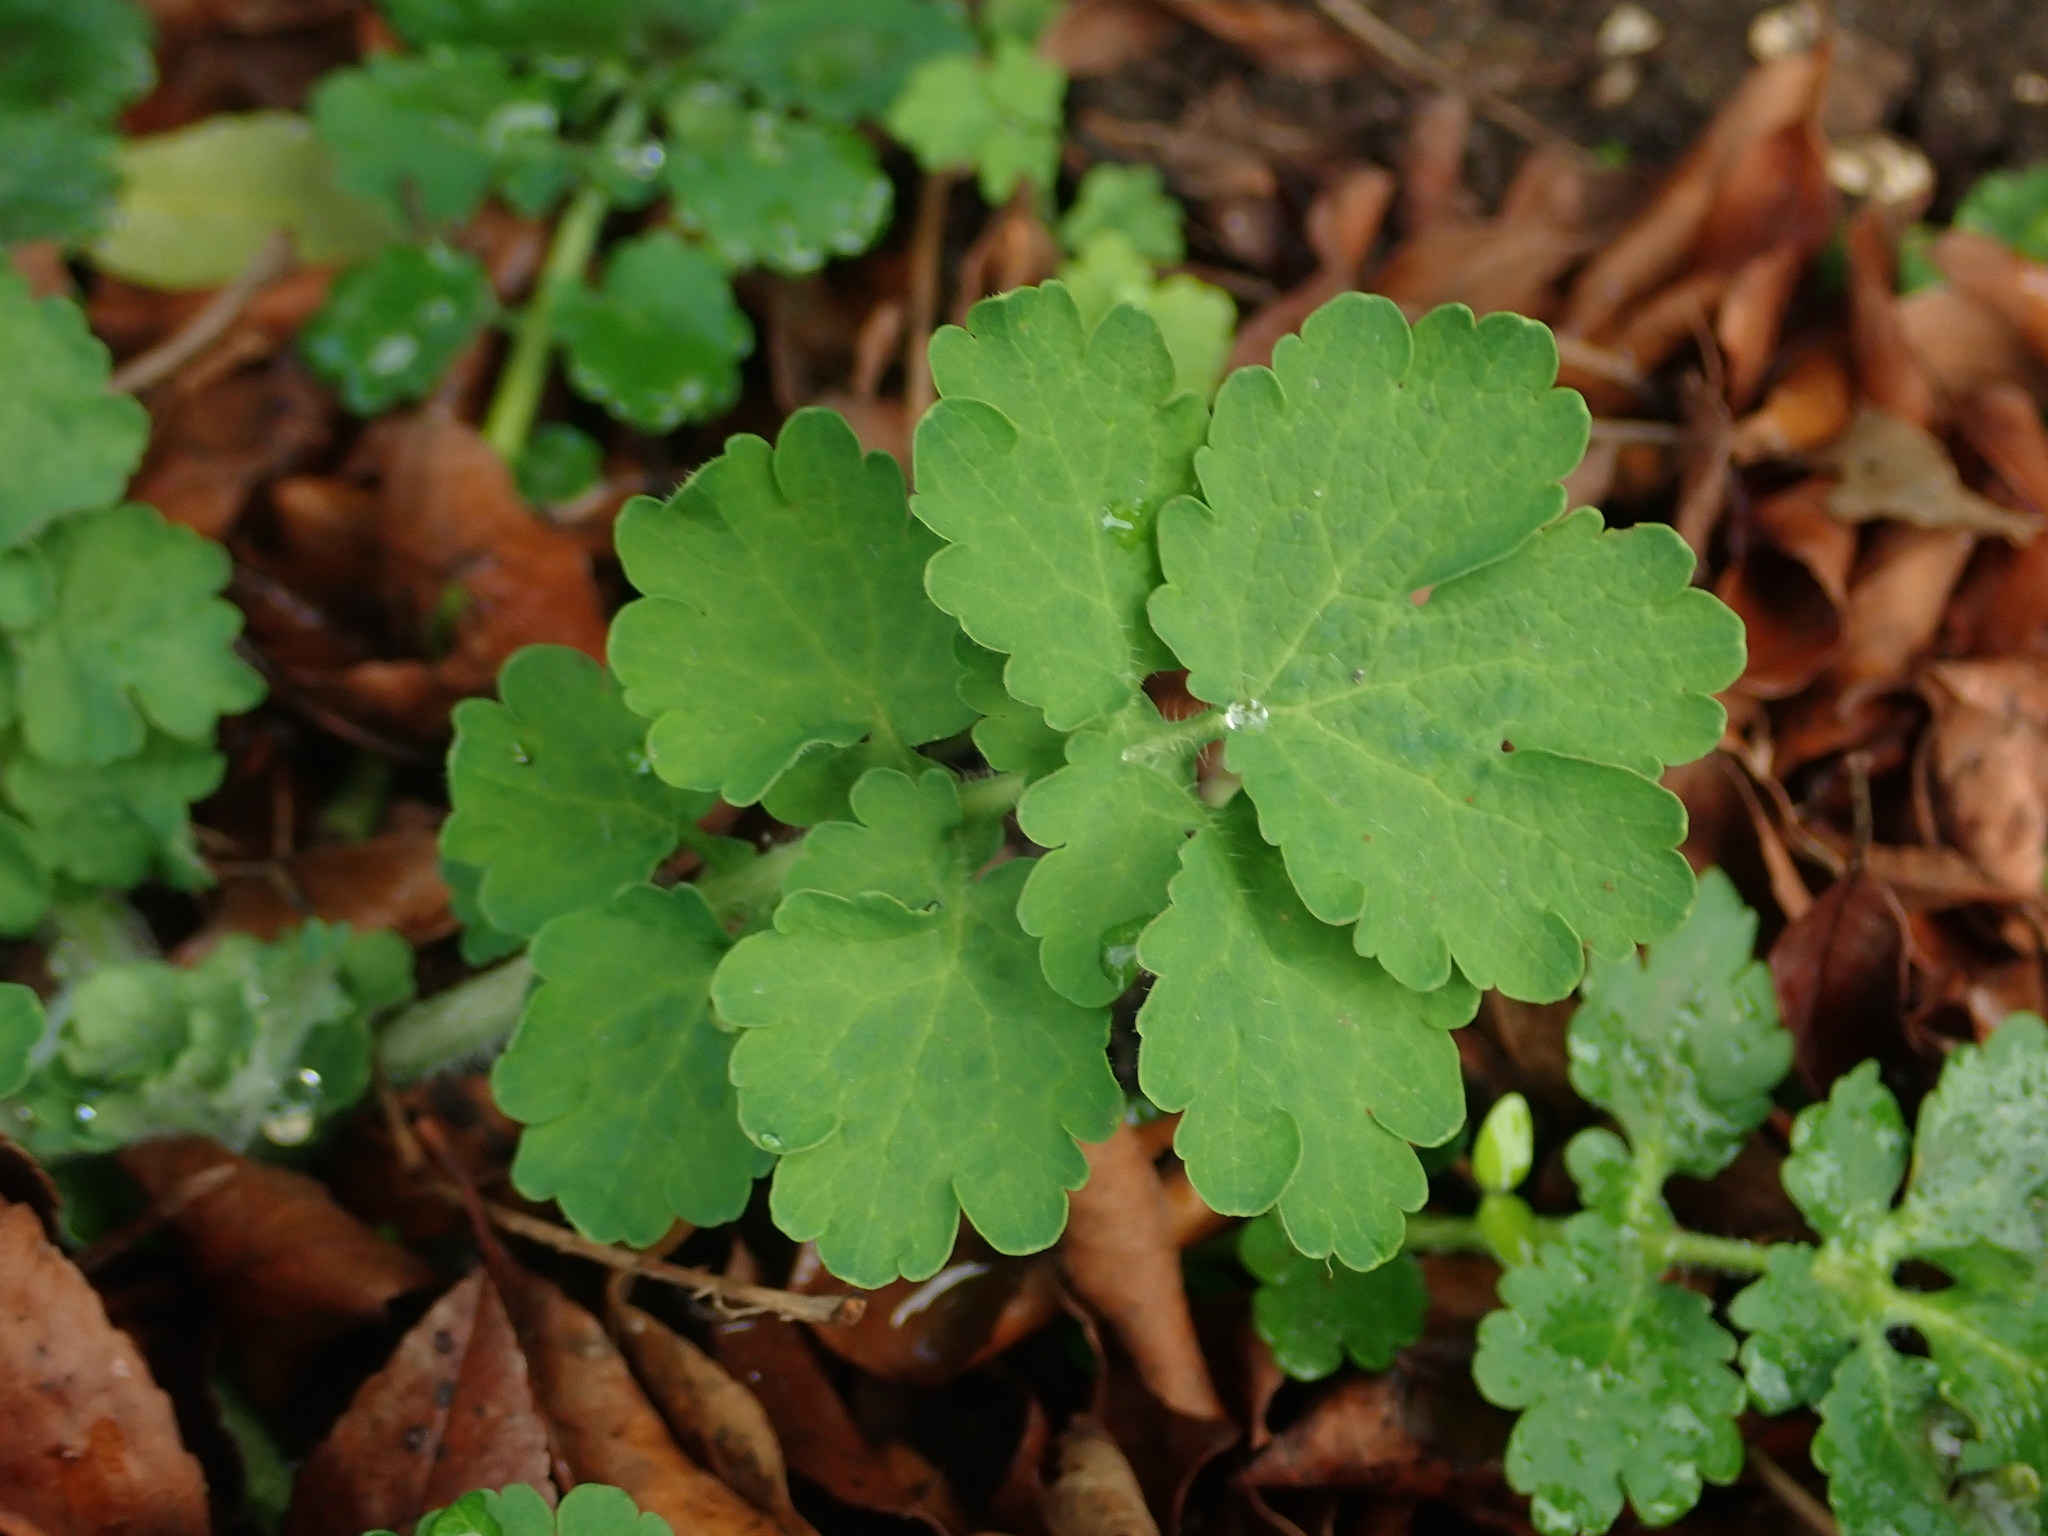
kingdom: Plantae
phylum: Tracheophyta
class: Magnoliopsida
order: Ranunculales
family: Papaveraceae
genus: Chelidonium
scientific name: Chelidonium majus
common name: Greater celandine
